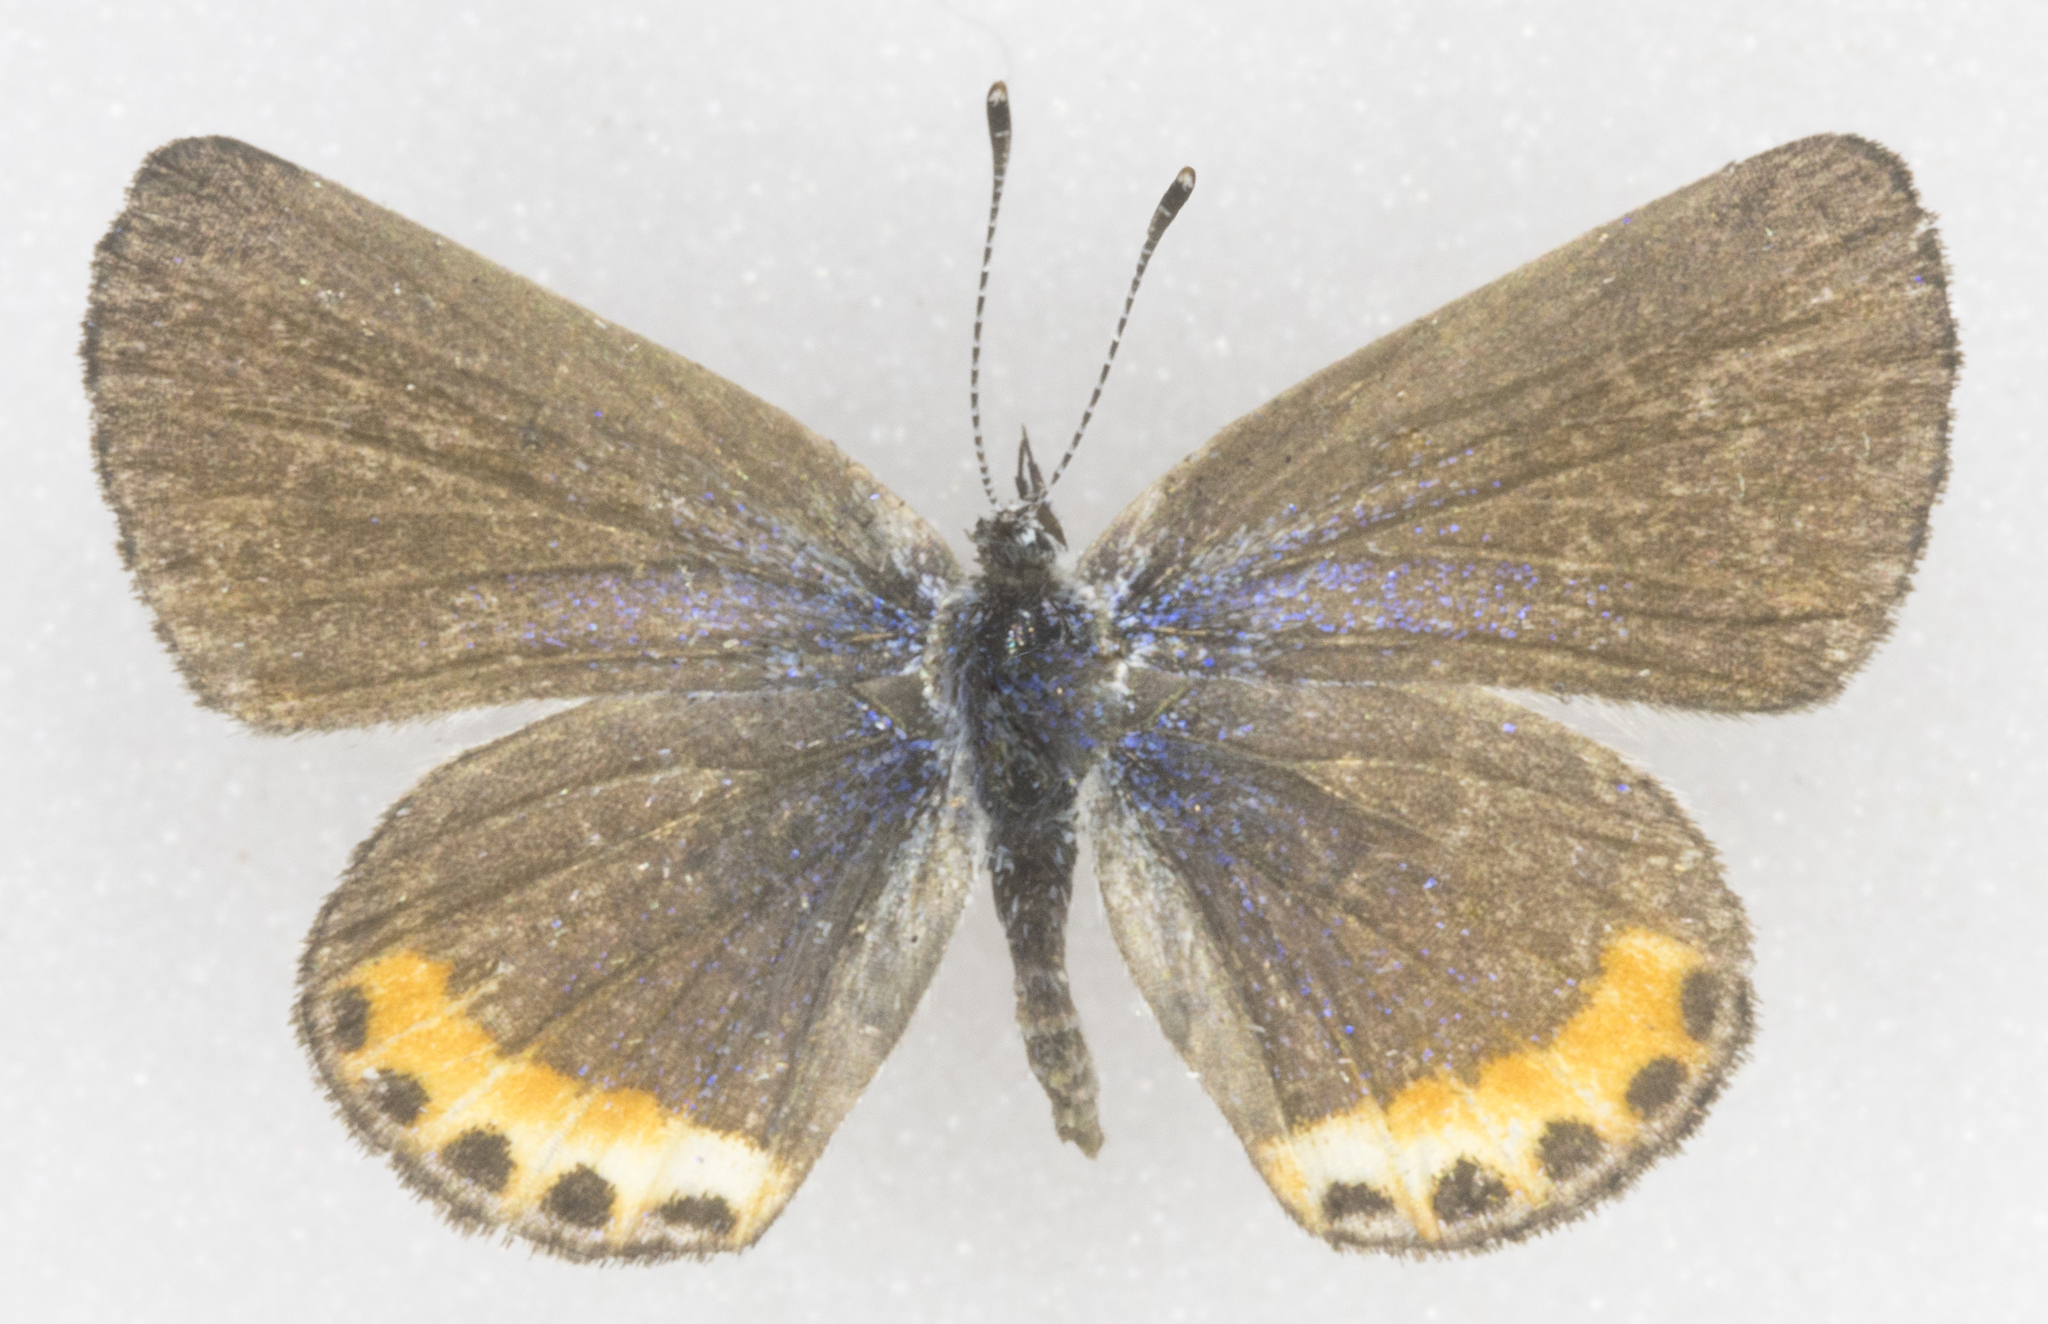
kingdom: Animalia
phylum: Arthropoda
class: Insecta
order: Lepidoptera
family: Lycaenidae
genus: Icaricia
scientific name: Icaricia lupini
